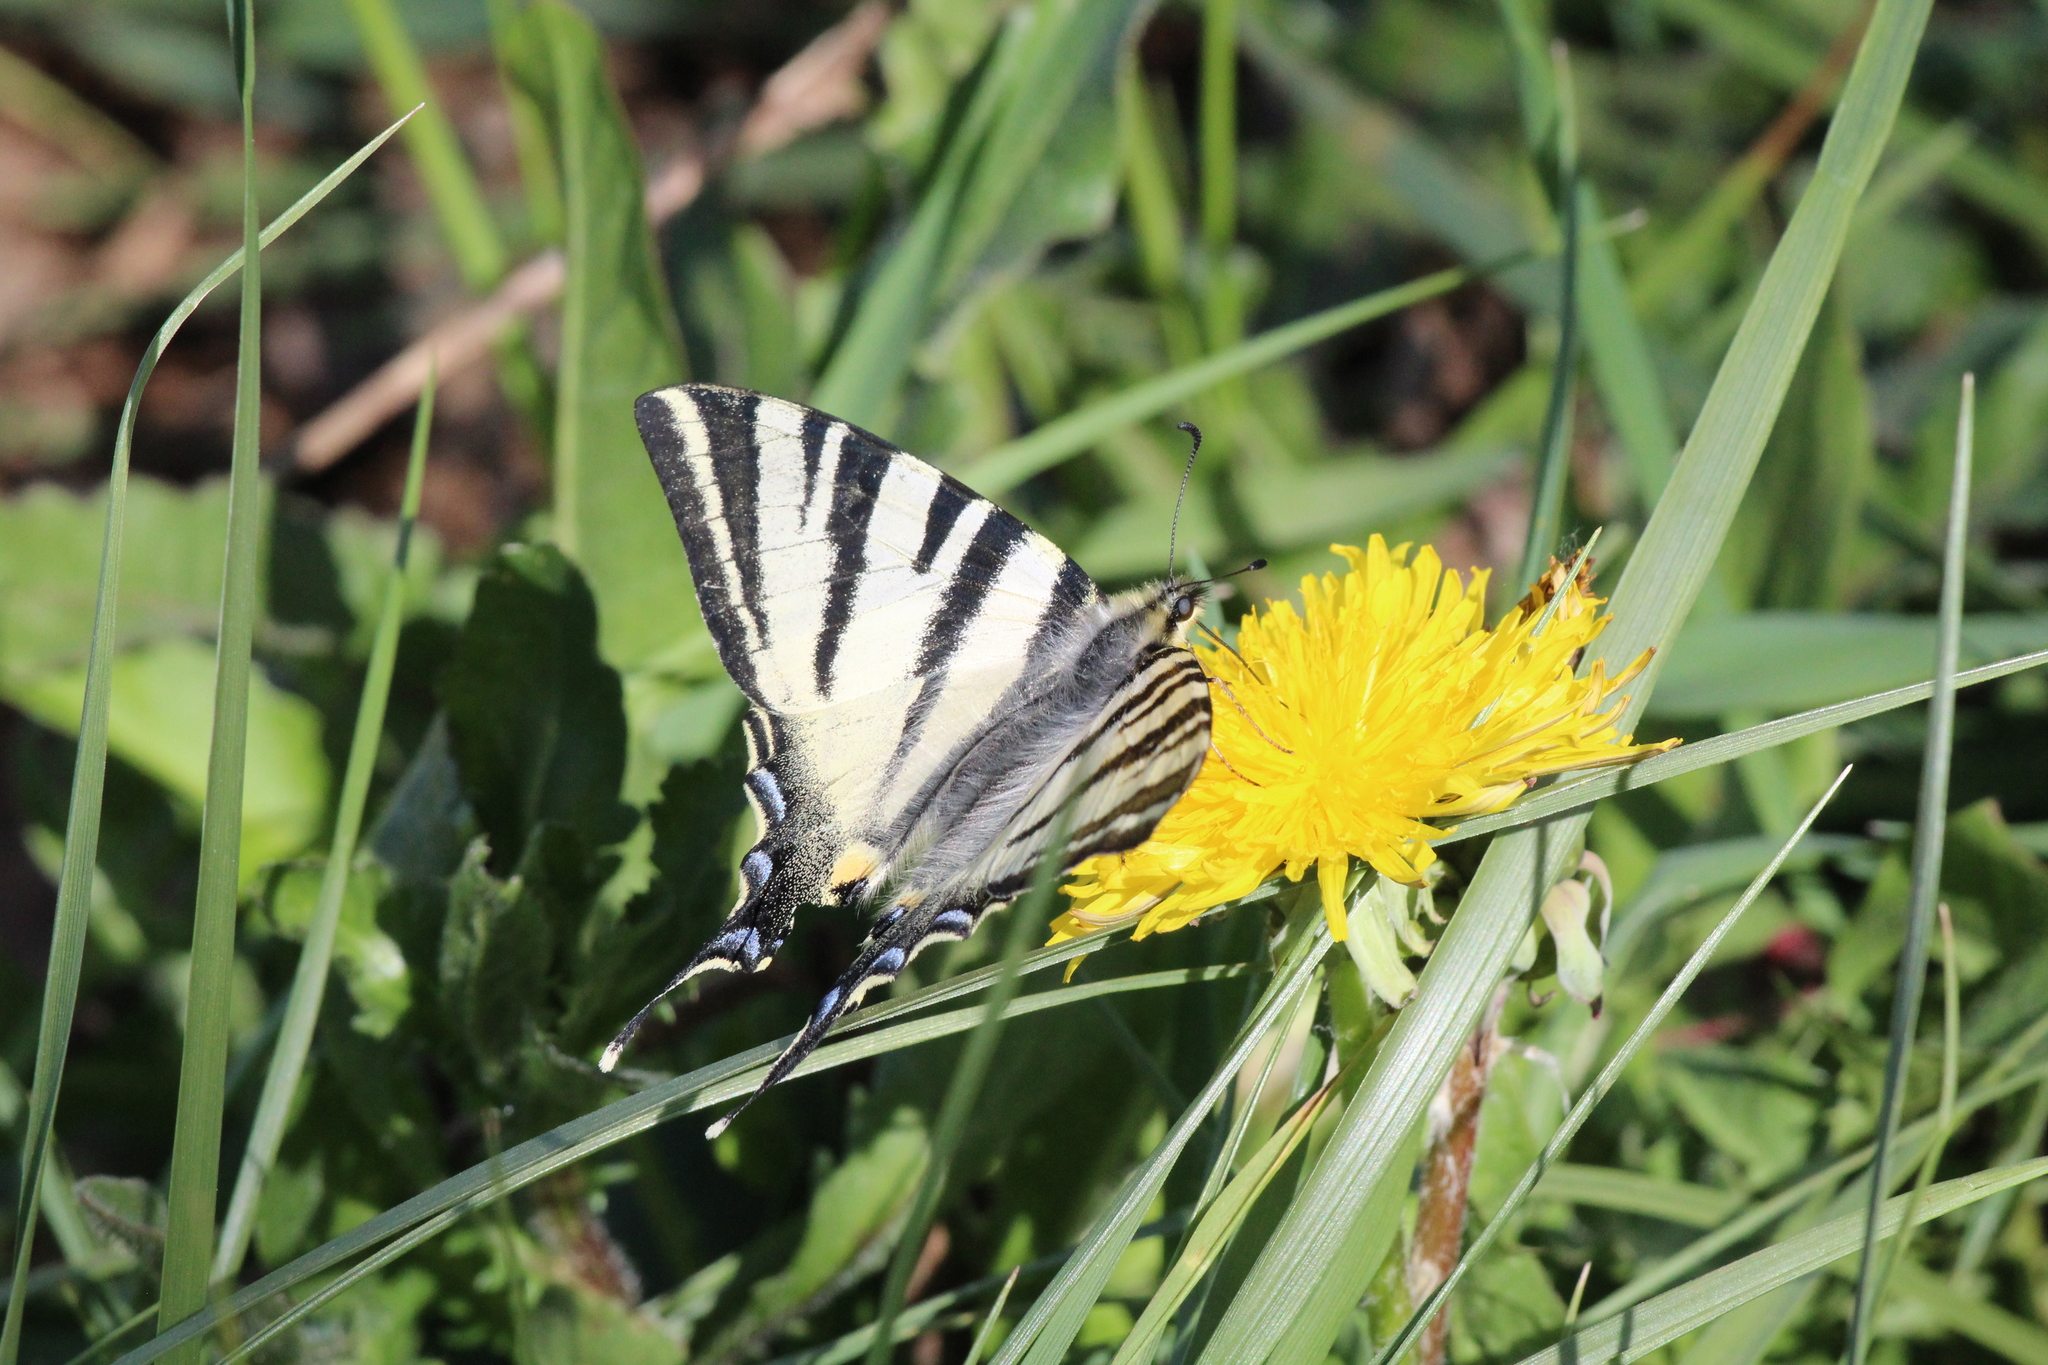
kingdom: Animalia
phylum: Arthropoda
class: Insecta
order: Lepidoptera
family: Papilionidae
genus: Iphiclides
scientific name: Iphiclides podalirius
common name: Scarce swallowtail
